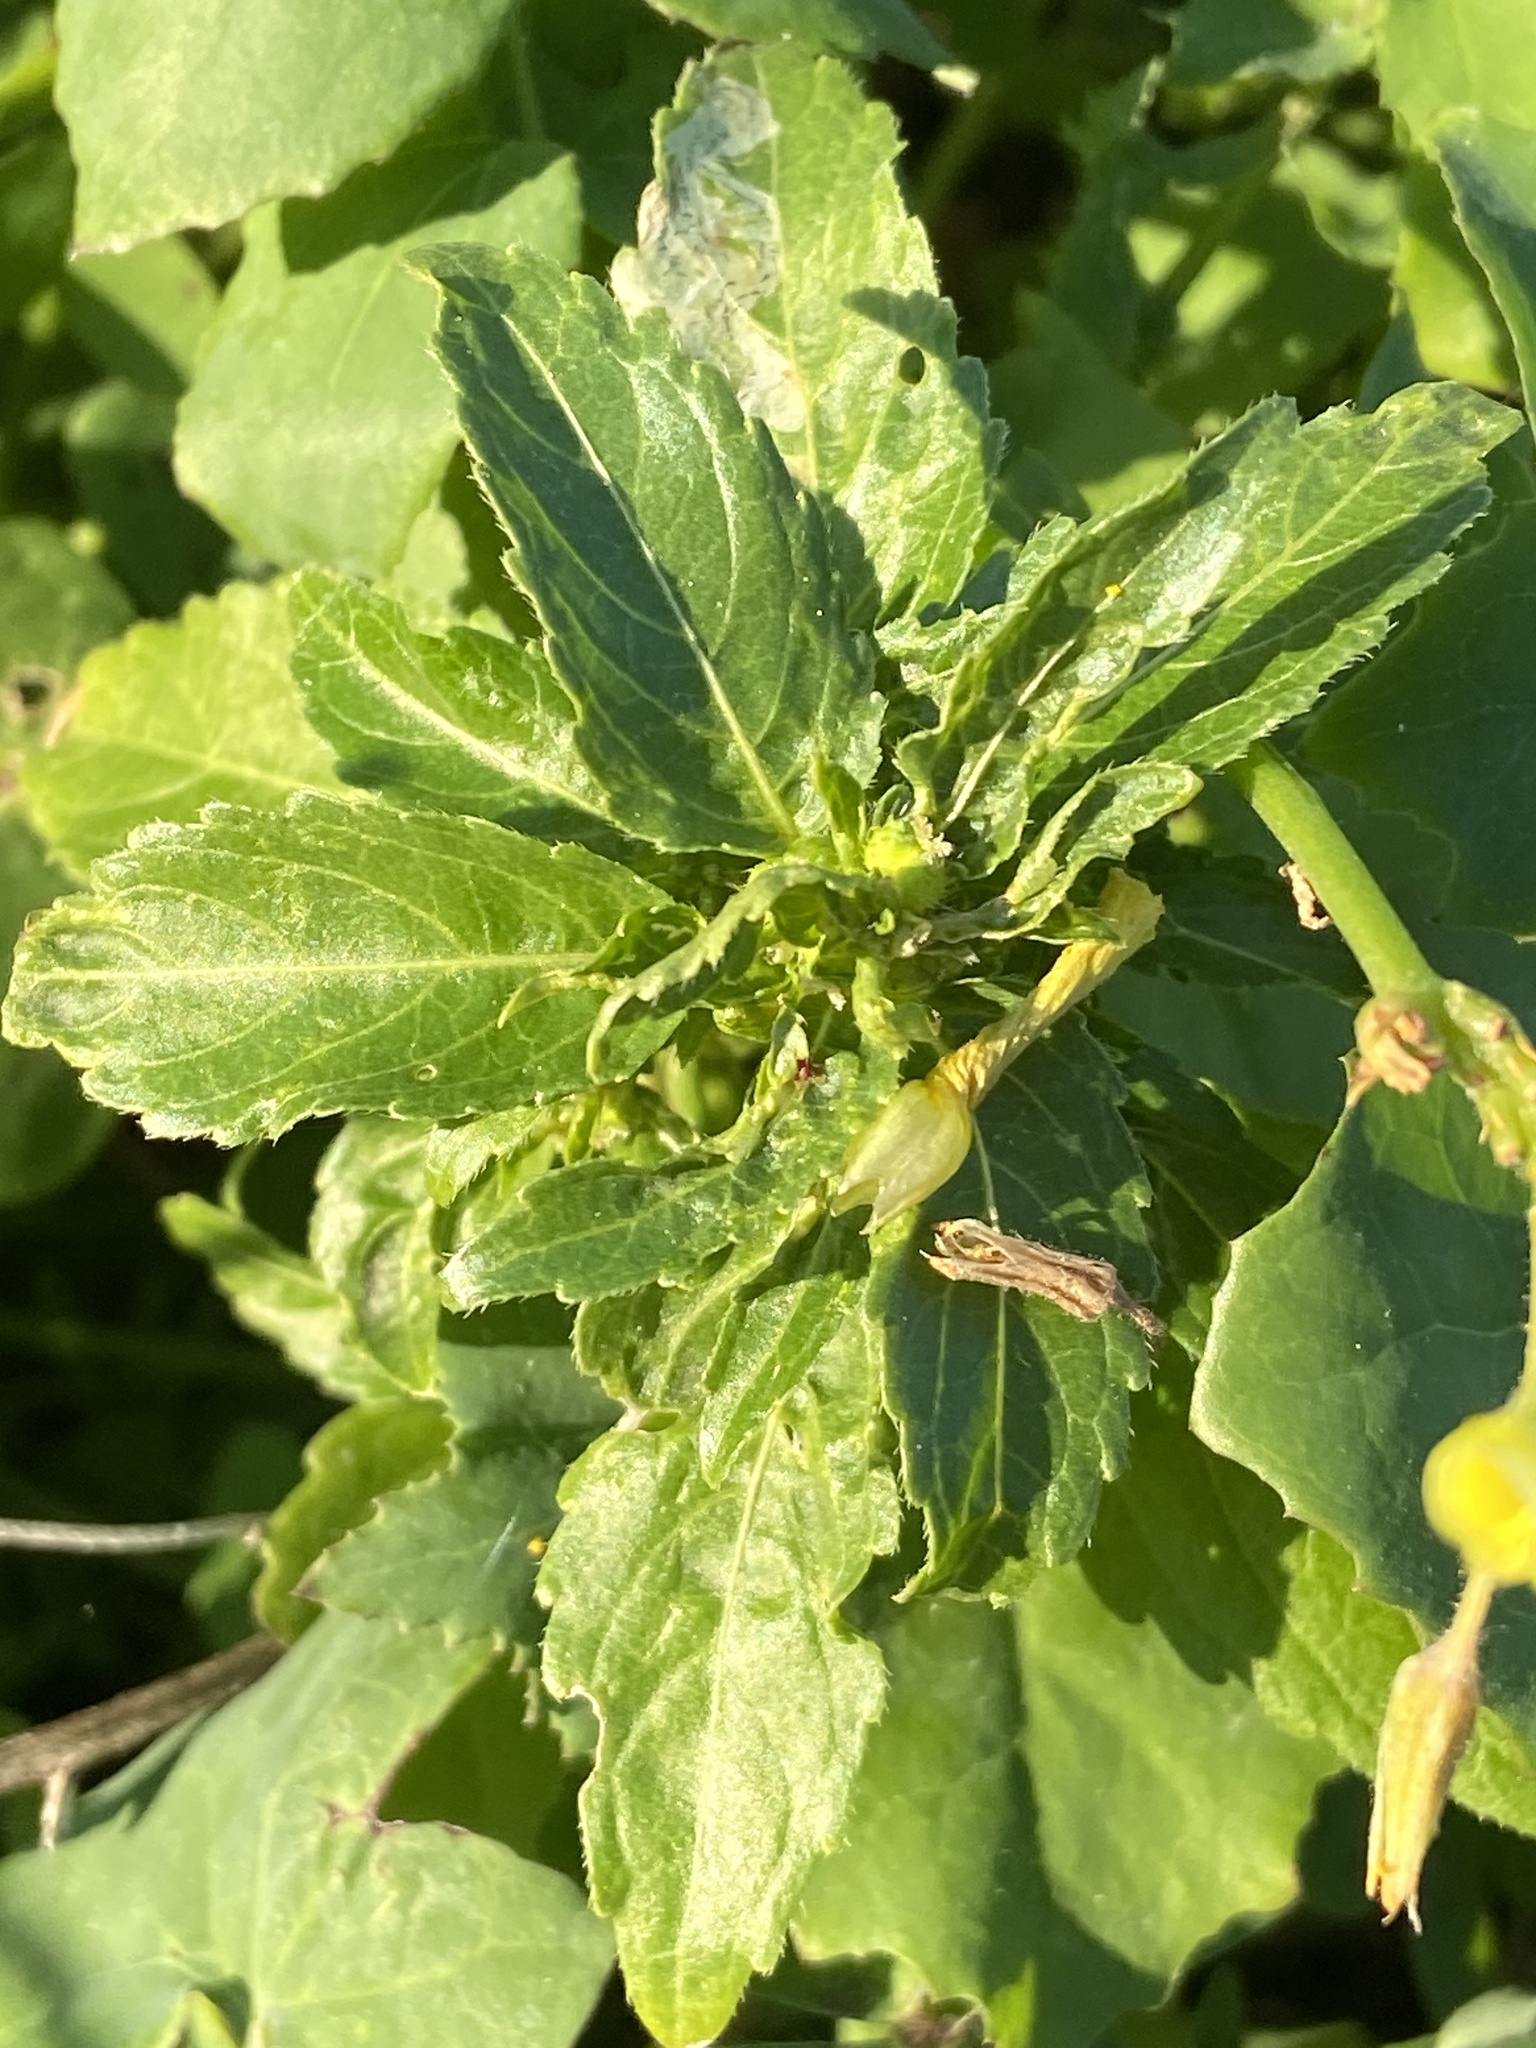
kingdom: Plantae
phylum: Tracheophyta
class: Magnoliopsida
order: Malpighiales
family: Euphorbiaceae
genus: Mercurialis
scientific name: Mercurialis annua
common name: Annual mercury
